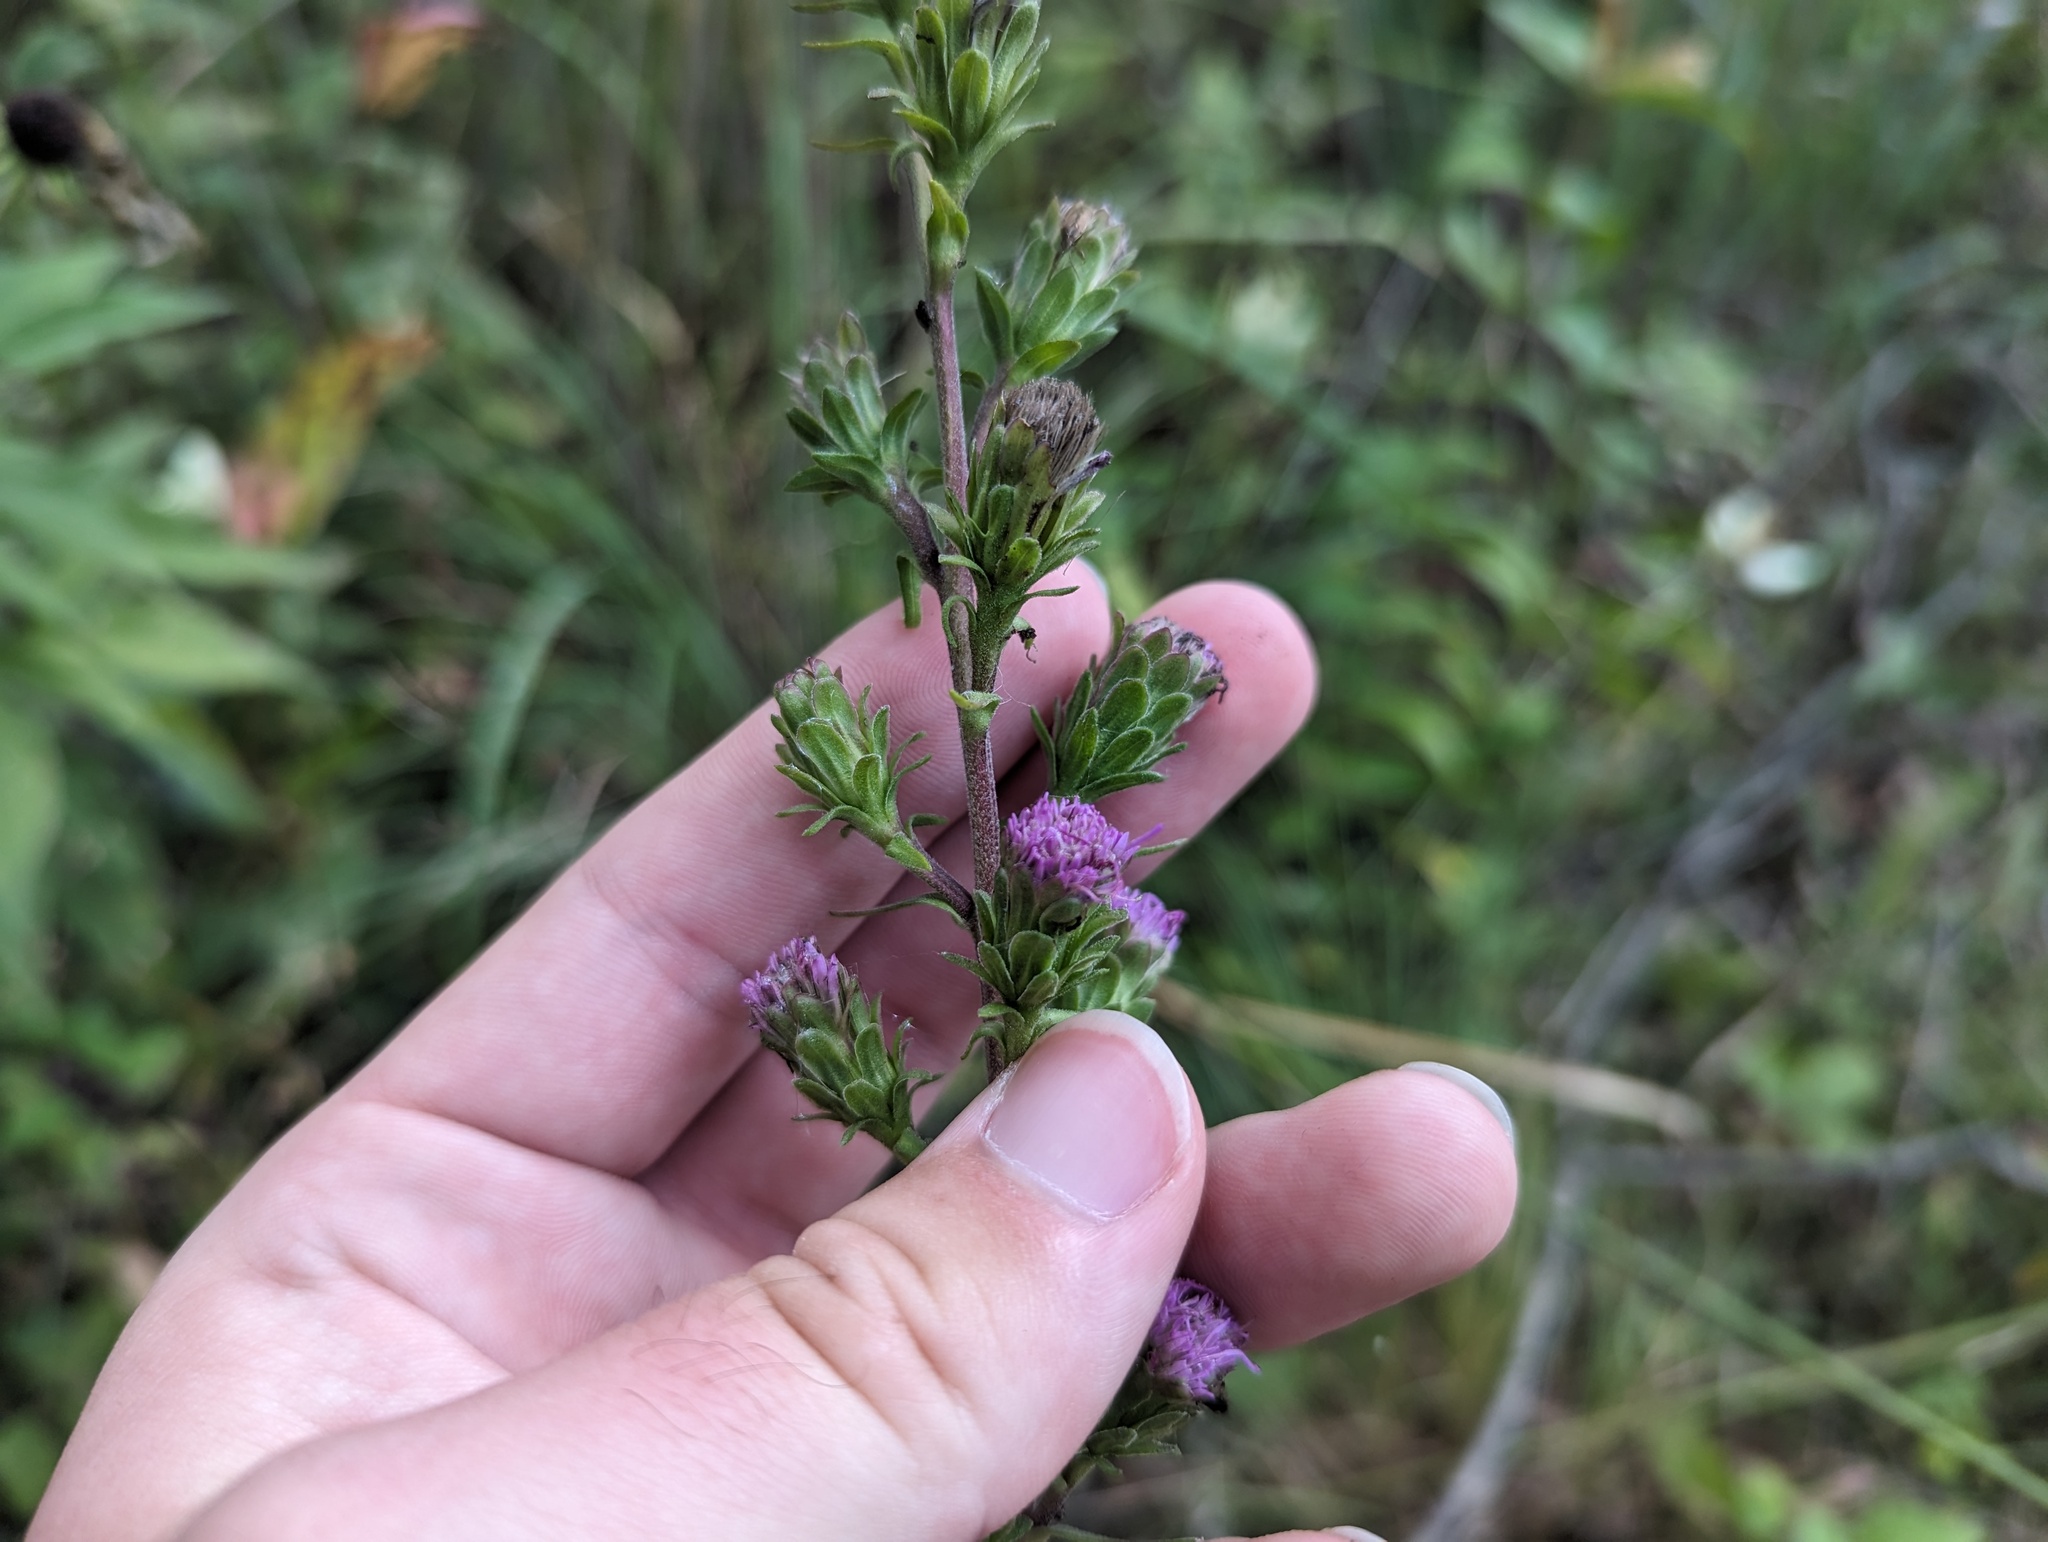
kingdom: Plantae
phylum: Tracheophyta
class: Magnoliopsida
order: Asterales
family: Asteraceae
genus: Liatris
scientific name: Liatris scariosa
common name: Northern gayfeather
